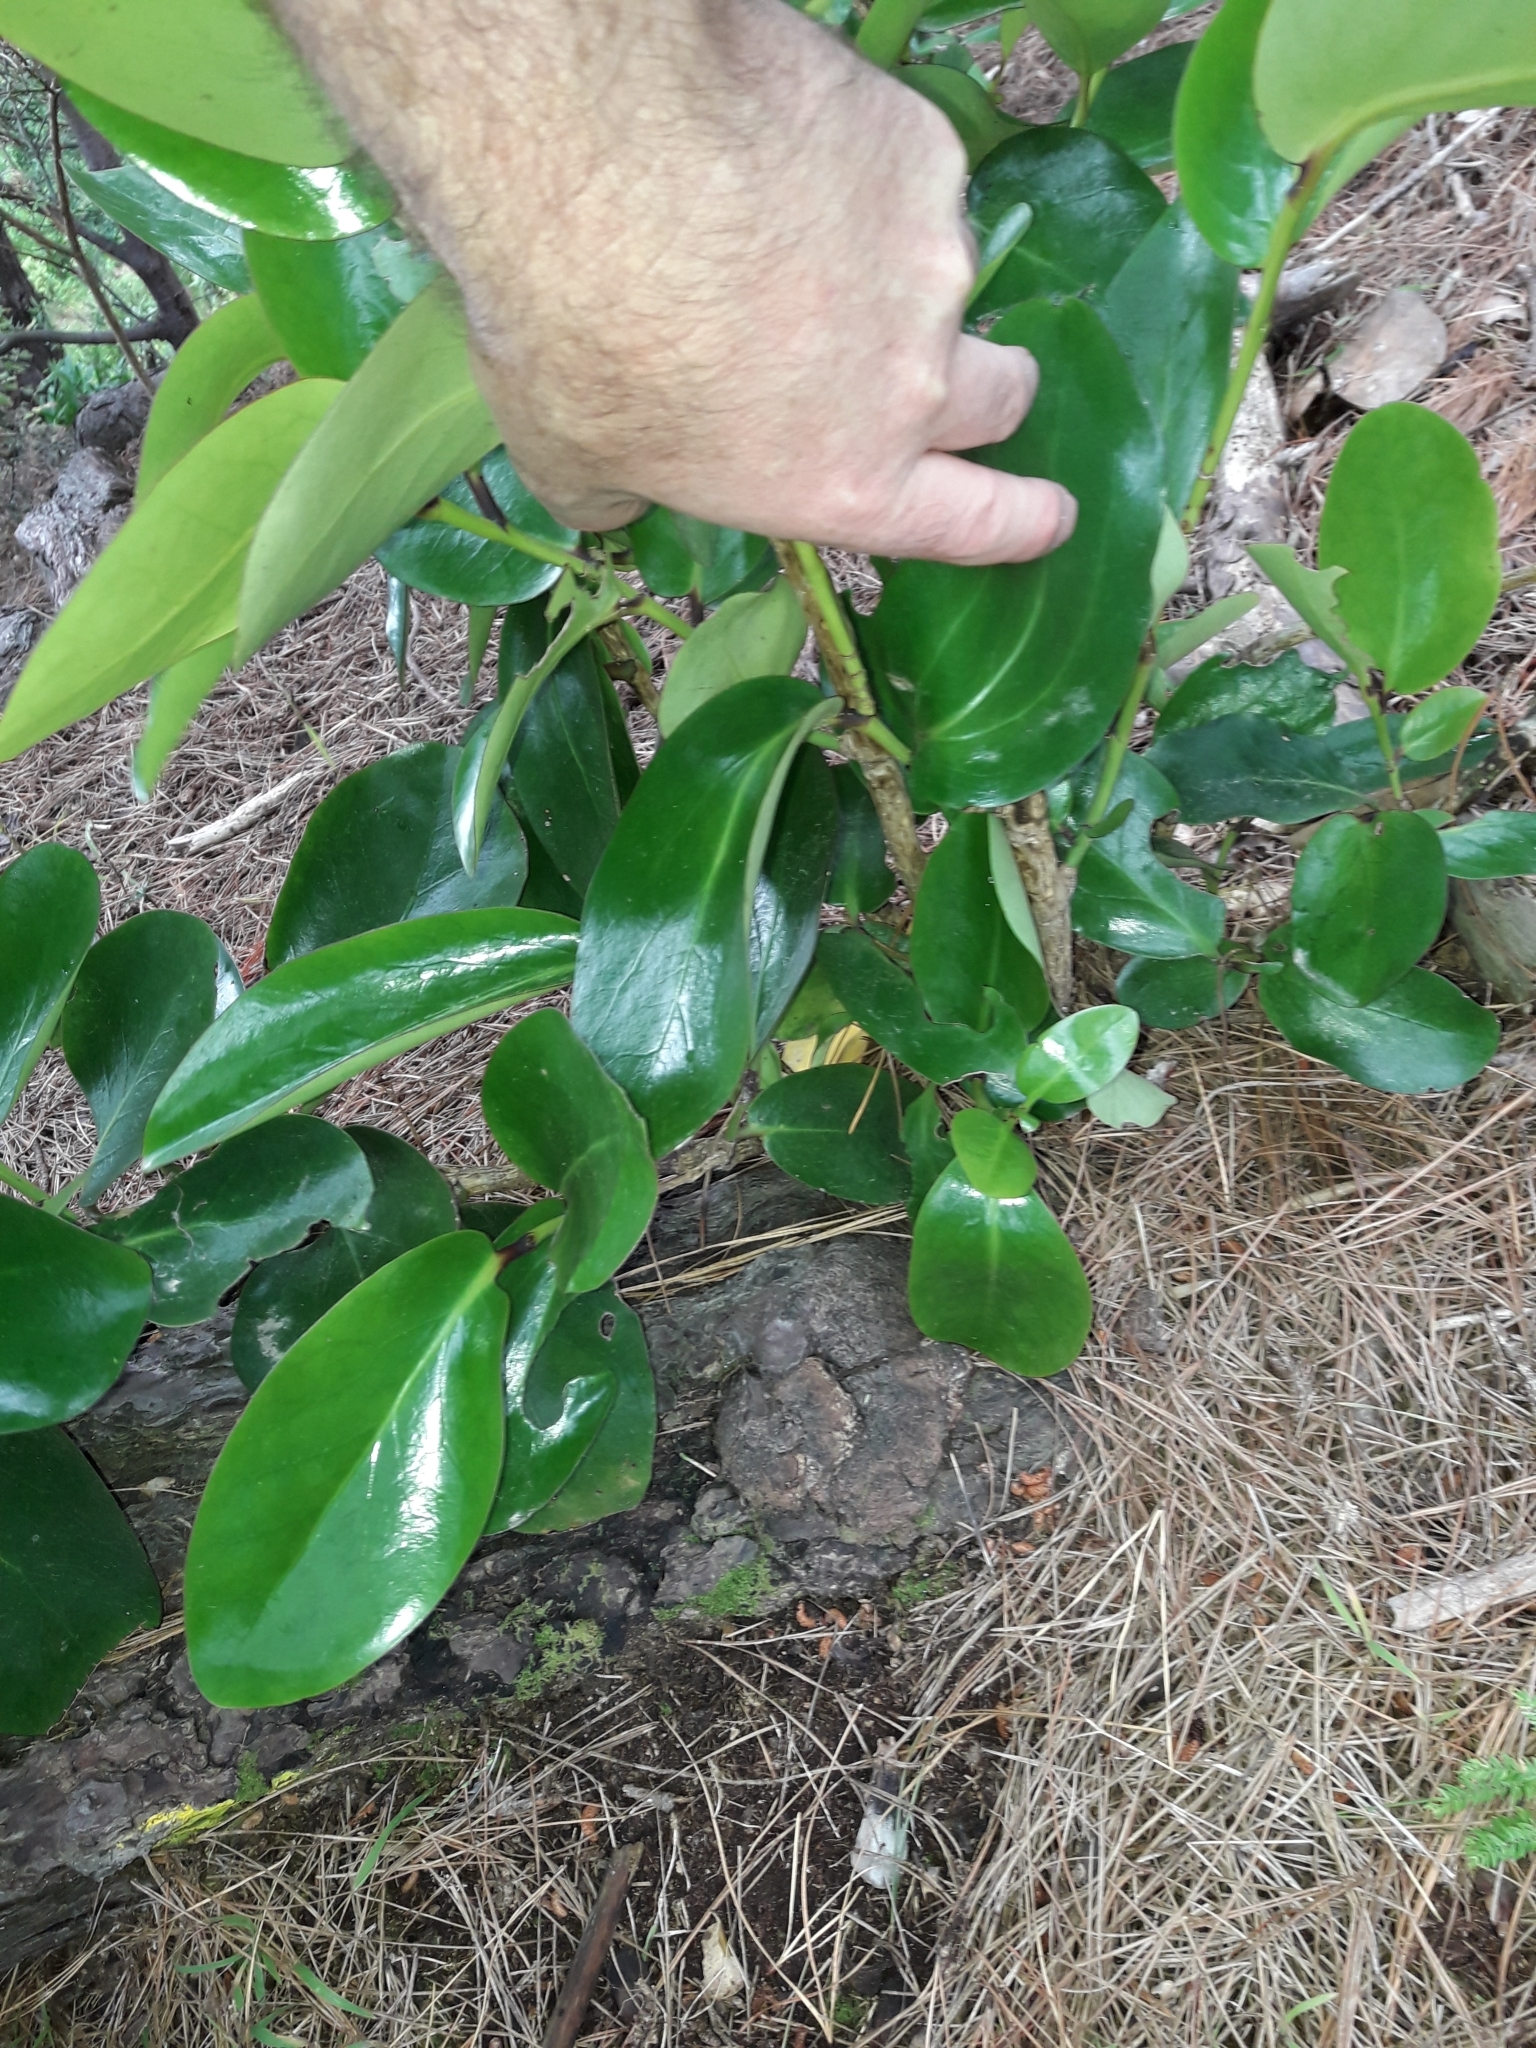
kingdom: Plantae
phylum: Tracheophyta
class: Magnoliopsida
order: Apiales
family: Griseliniaceae
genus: Griselinia
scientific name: Griselinia lucida
